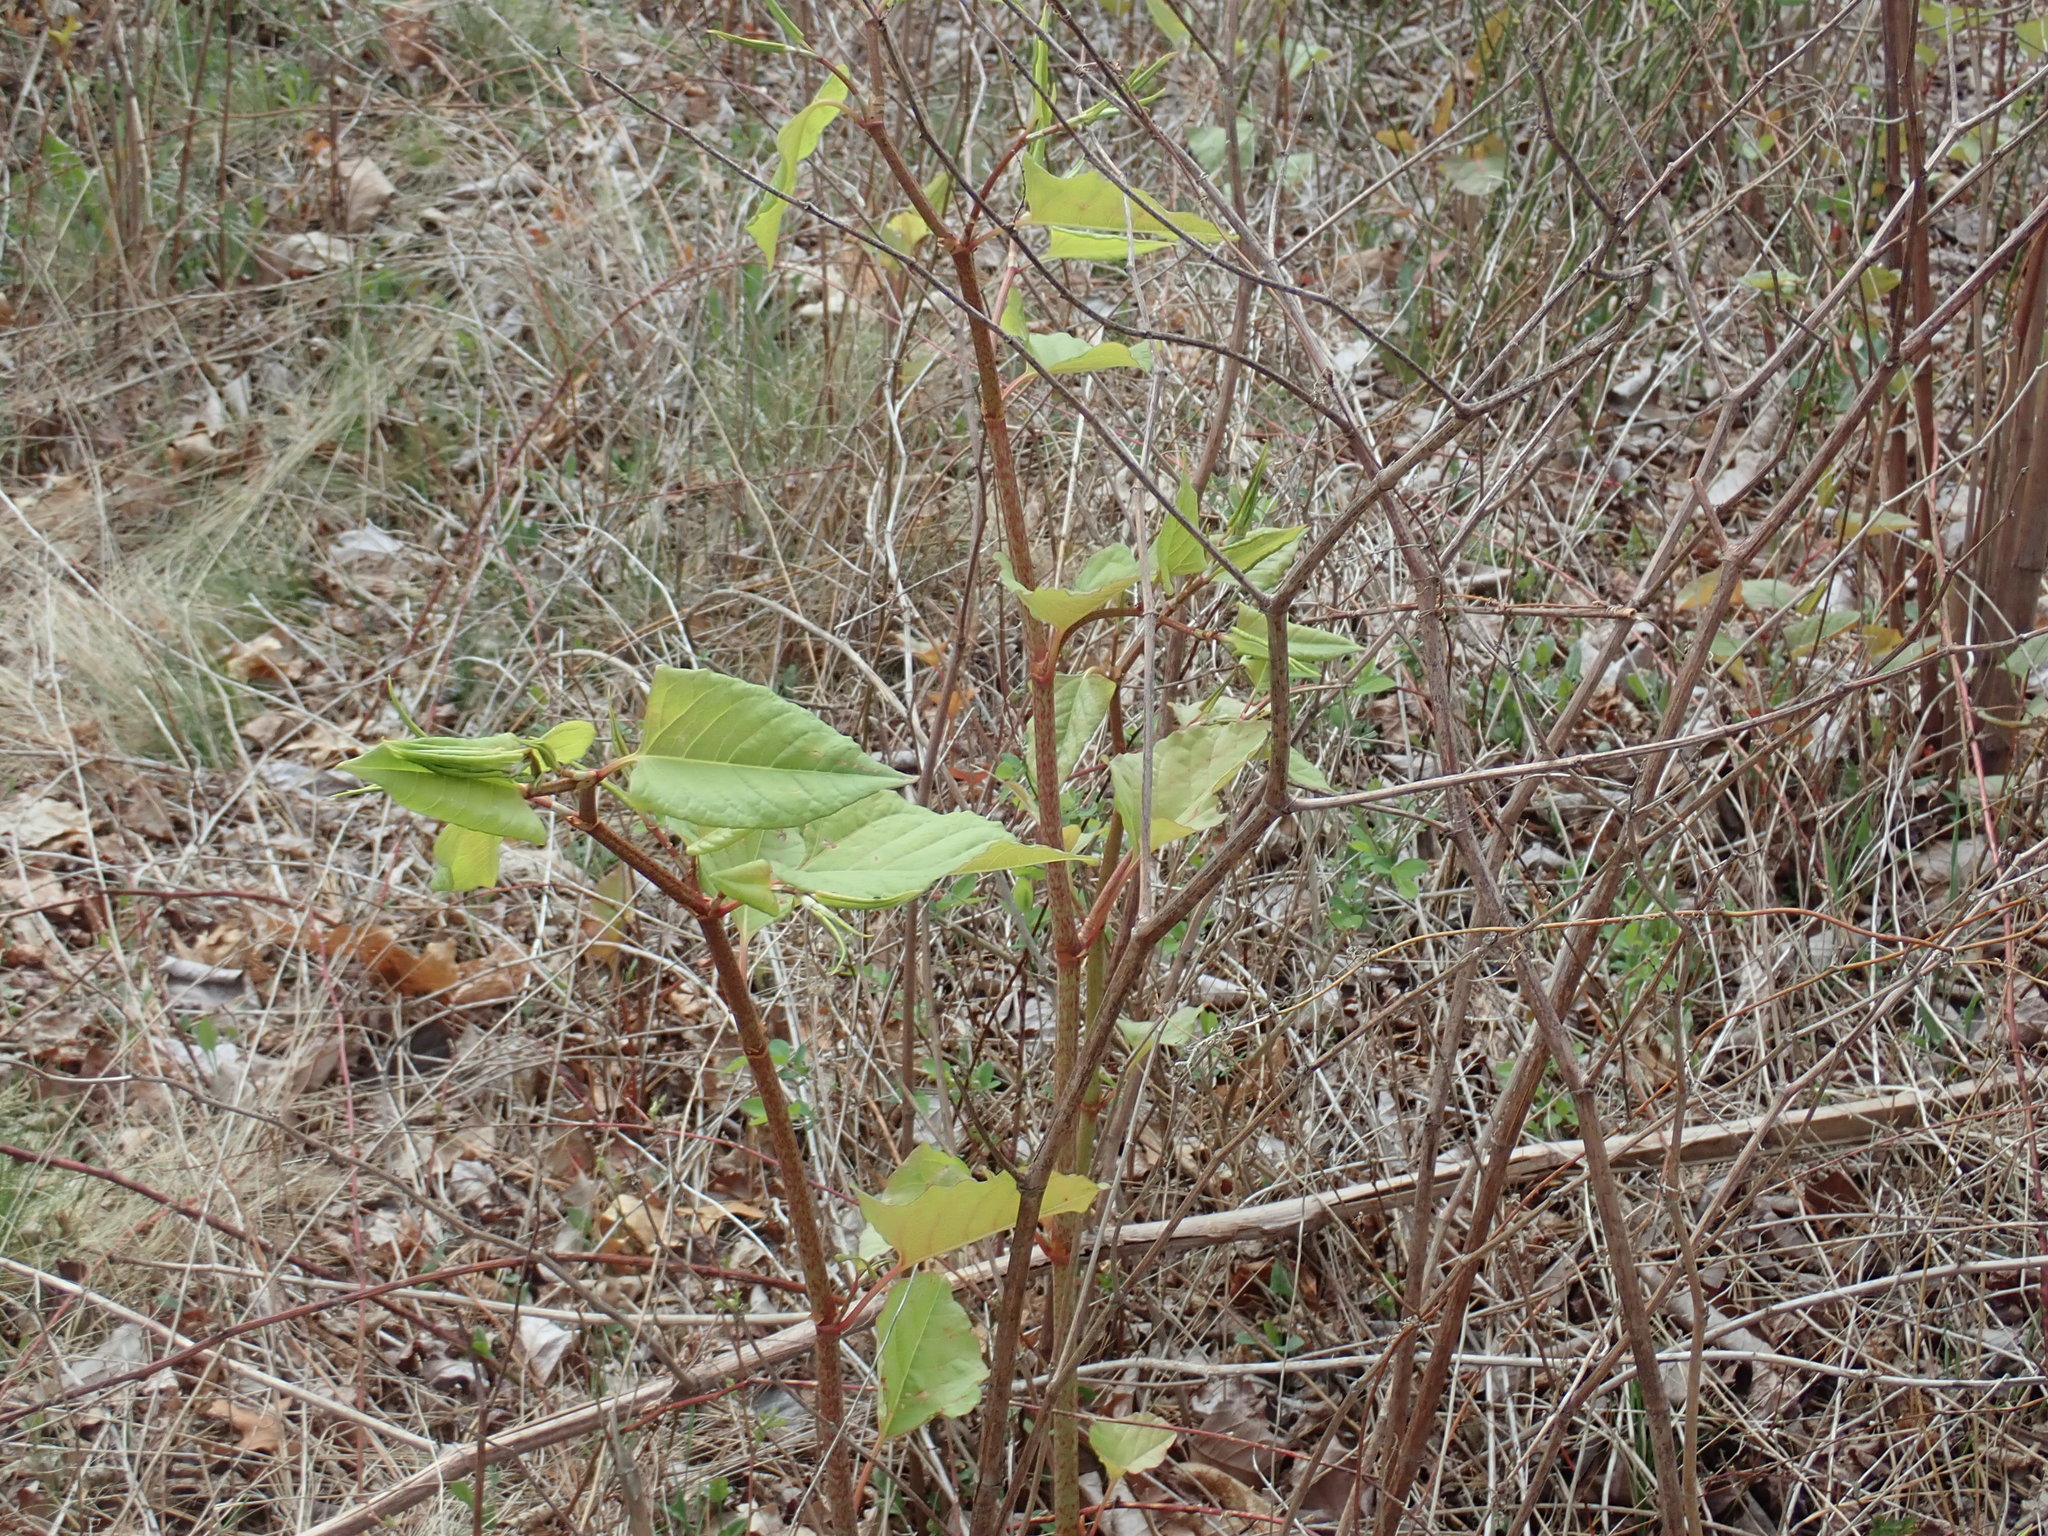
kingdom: Plantae
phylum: Tracheophyta
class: Magnoliopsida
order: Caryophyllales
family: Polygonaceae
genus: Reynoutria
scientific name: Reynoutria japonica
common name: Japanese knotweed
